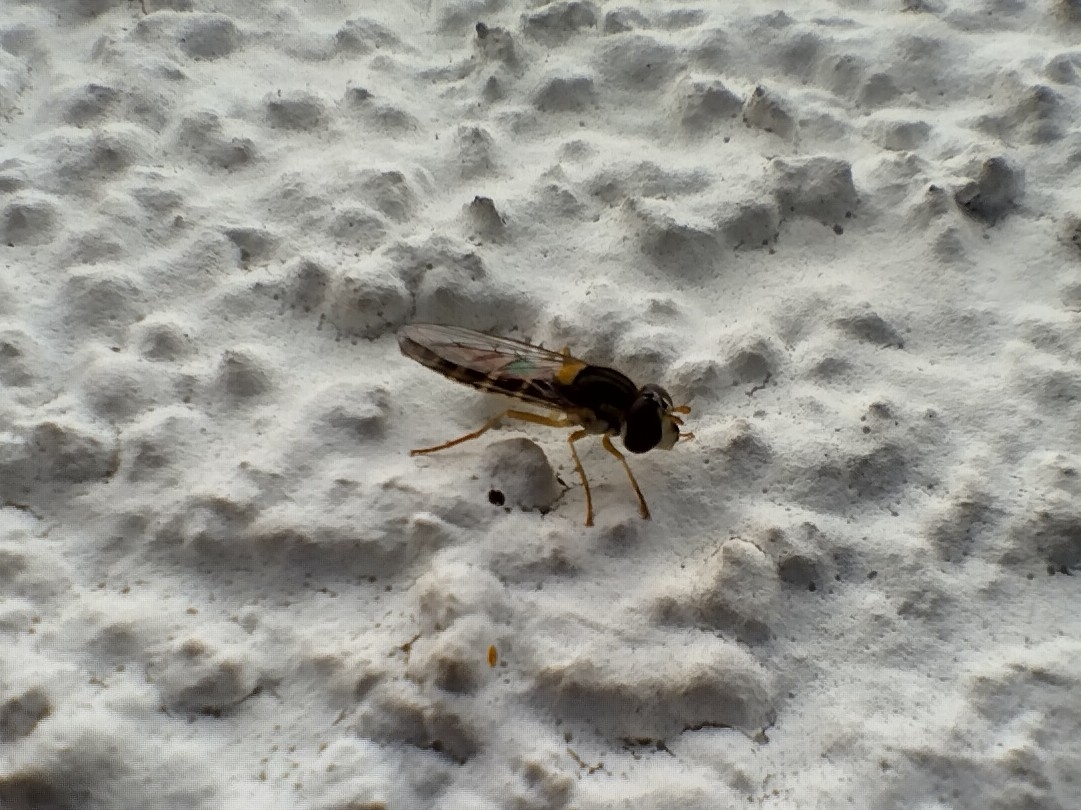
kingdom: Animalia
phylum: Arthropoda
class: Insecta
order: Diptera
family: Syrphidae
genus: Sphaerophoria
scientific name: Sphaerophoria
